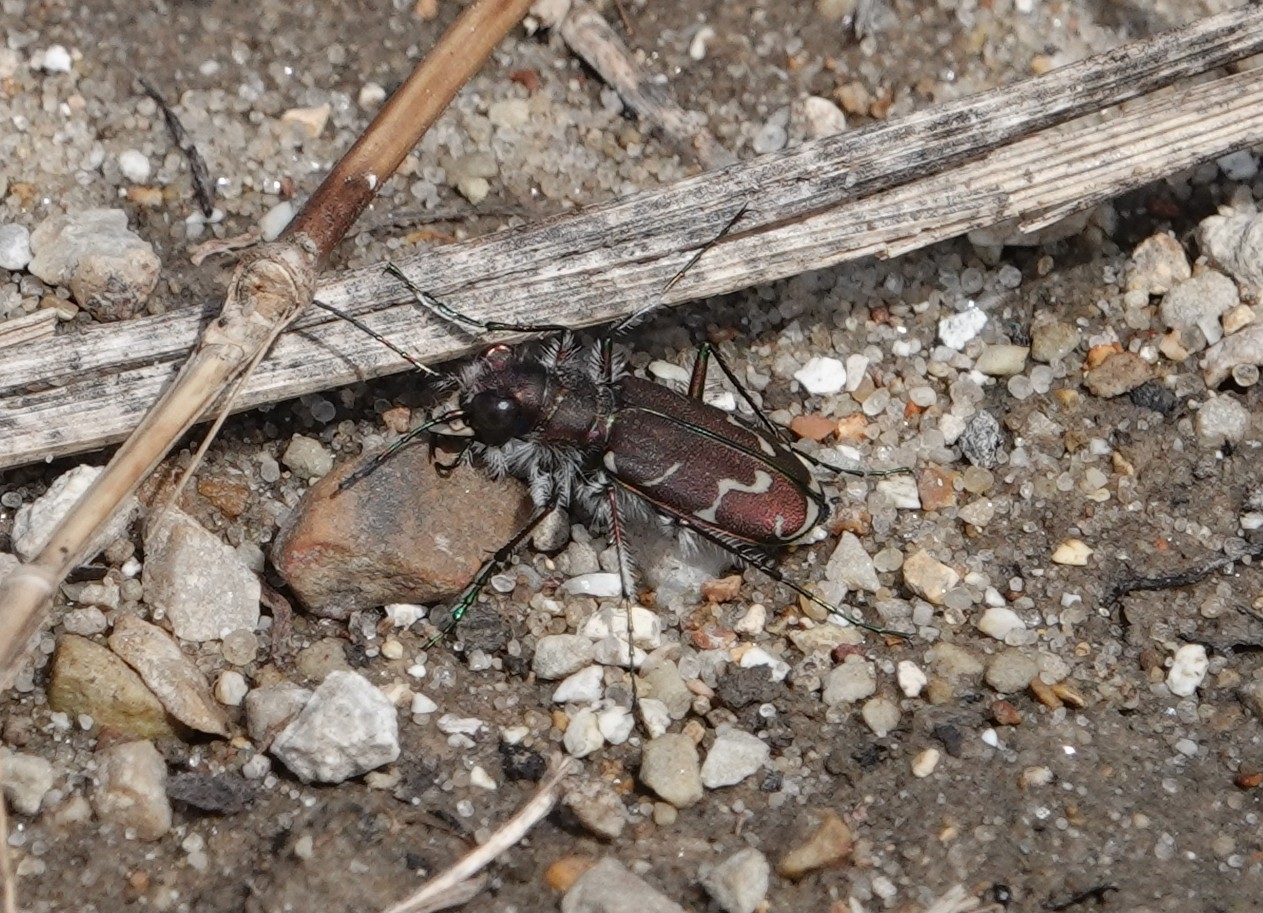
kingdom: Animalia
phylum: Arthropoda
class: Insecta
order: Coleoptera
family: Carabidae
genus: Cicindela
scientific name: Cicindela tranquebarica
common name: Oblique-lined tiger beetle
